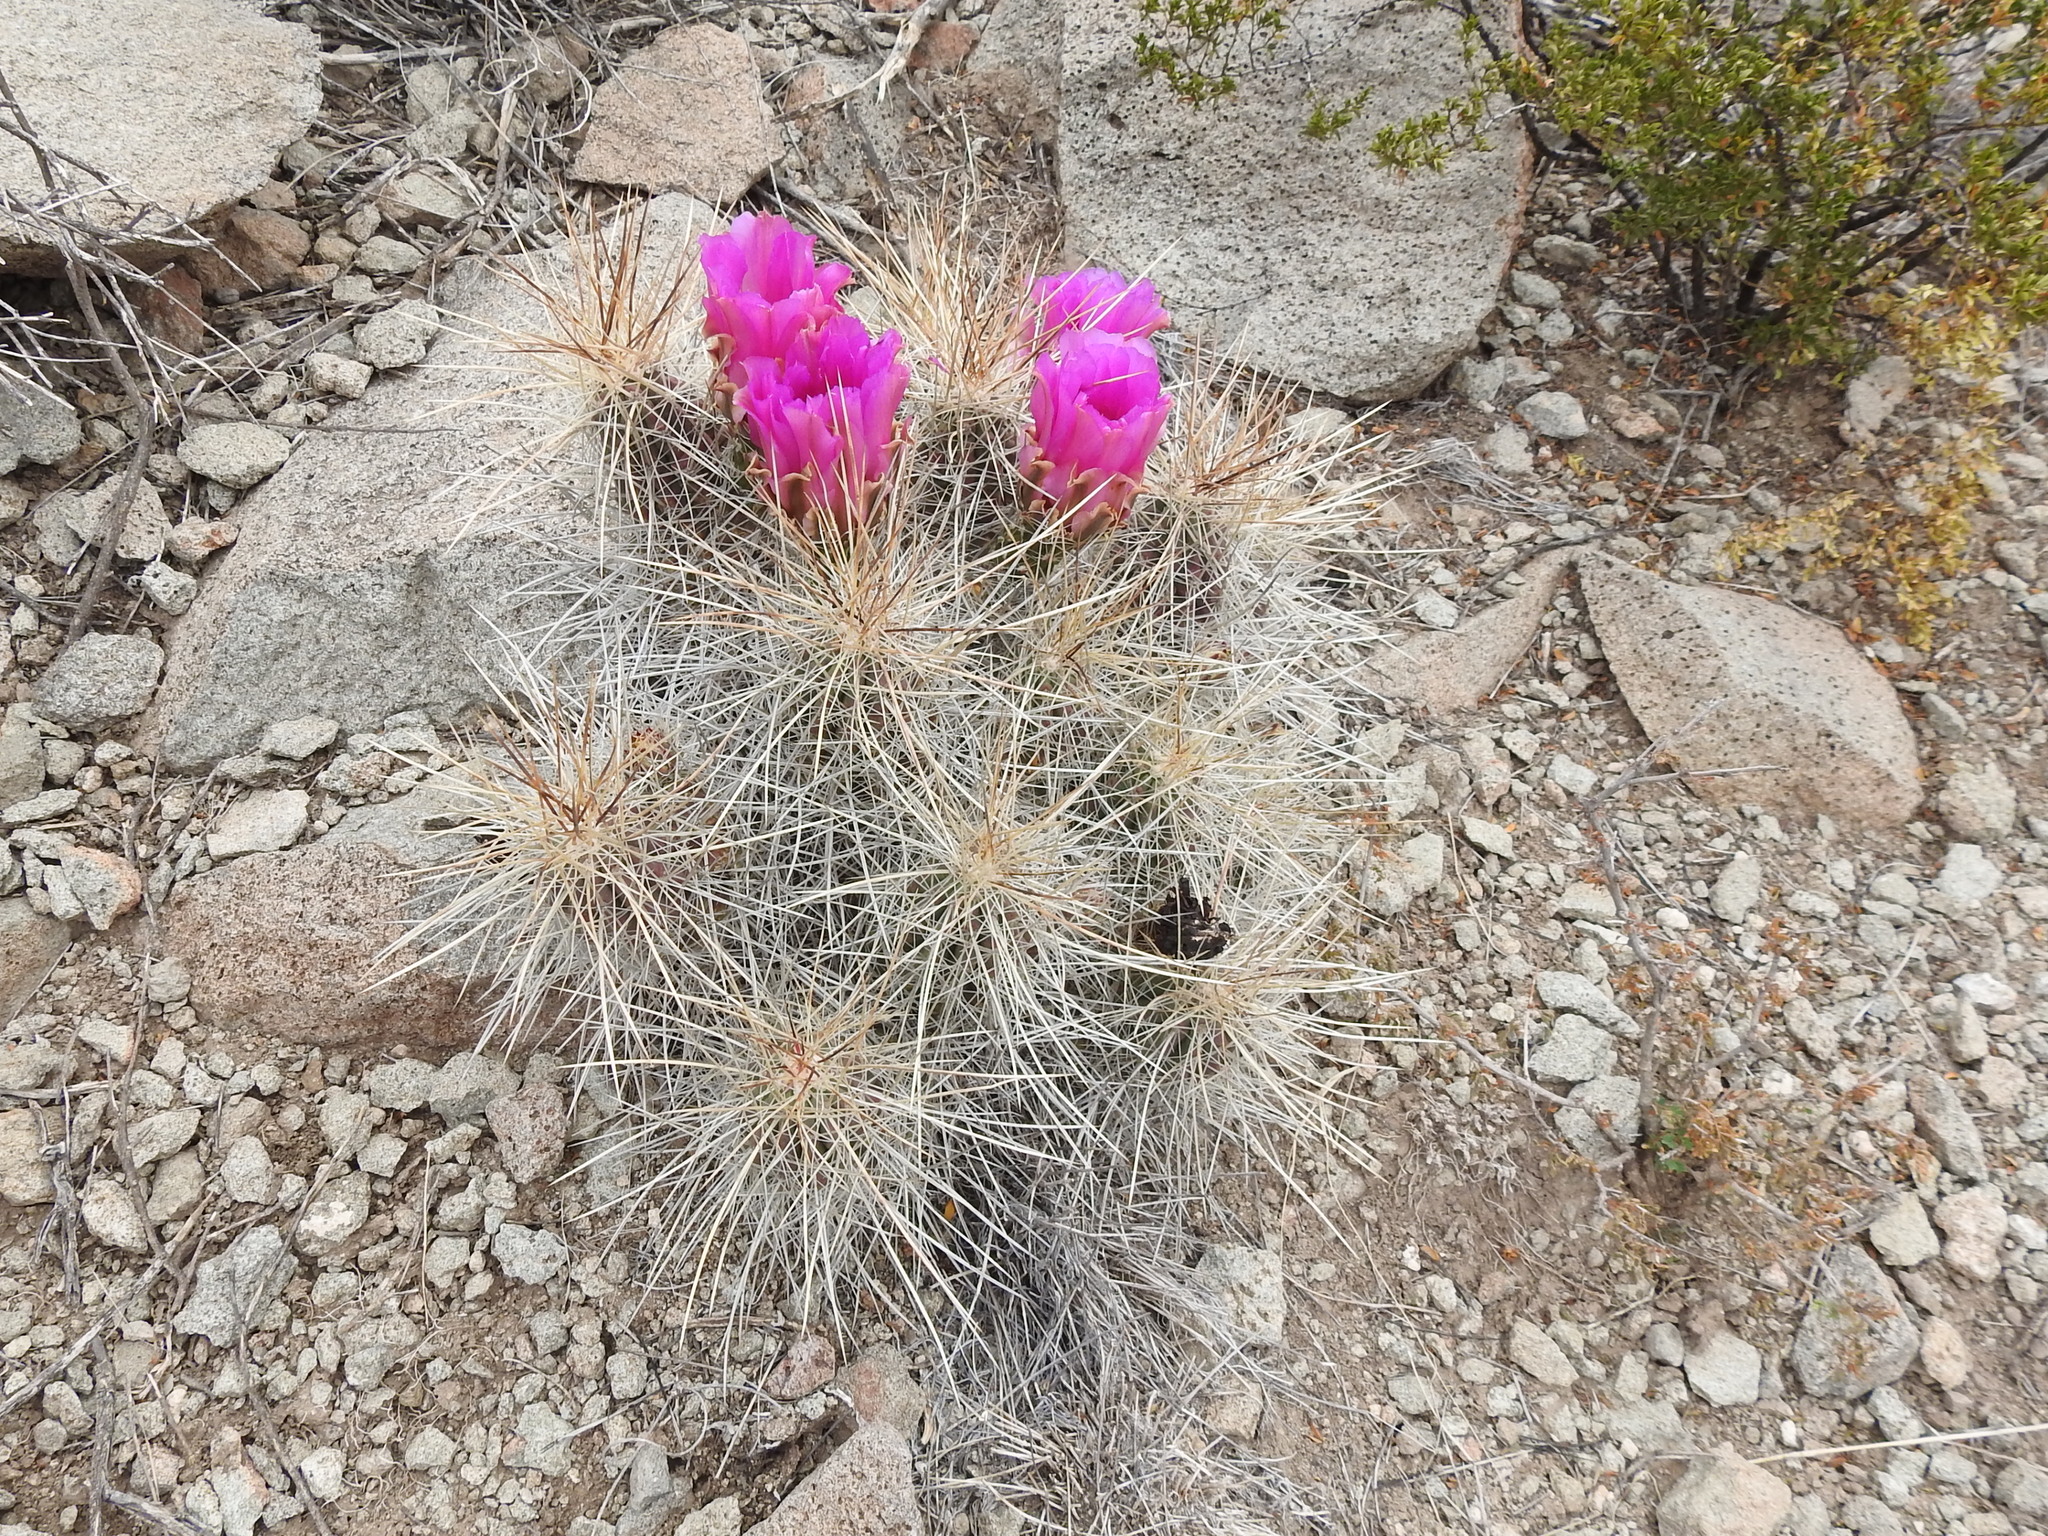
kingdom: Plantae
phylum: Tracheophyta
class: Magnoliopsida
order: Caryophyllales
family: Cactaceae
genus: Echinocereus
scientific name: Echinocereus stramineus
